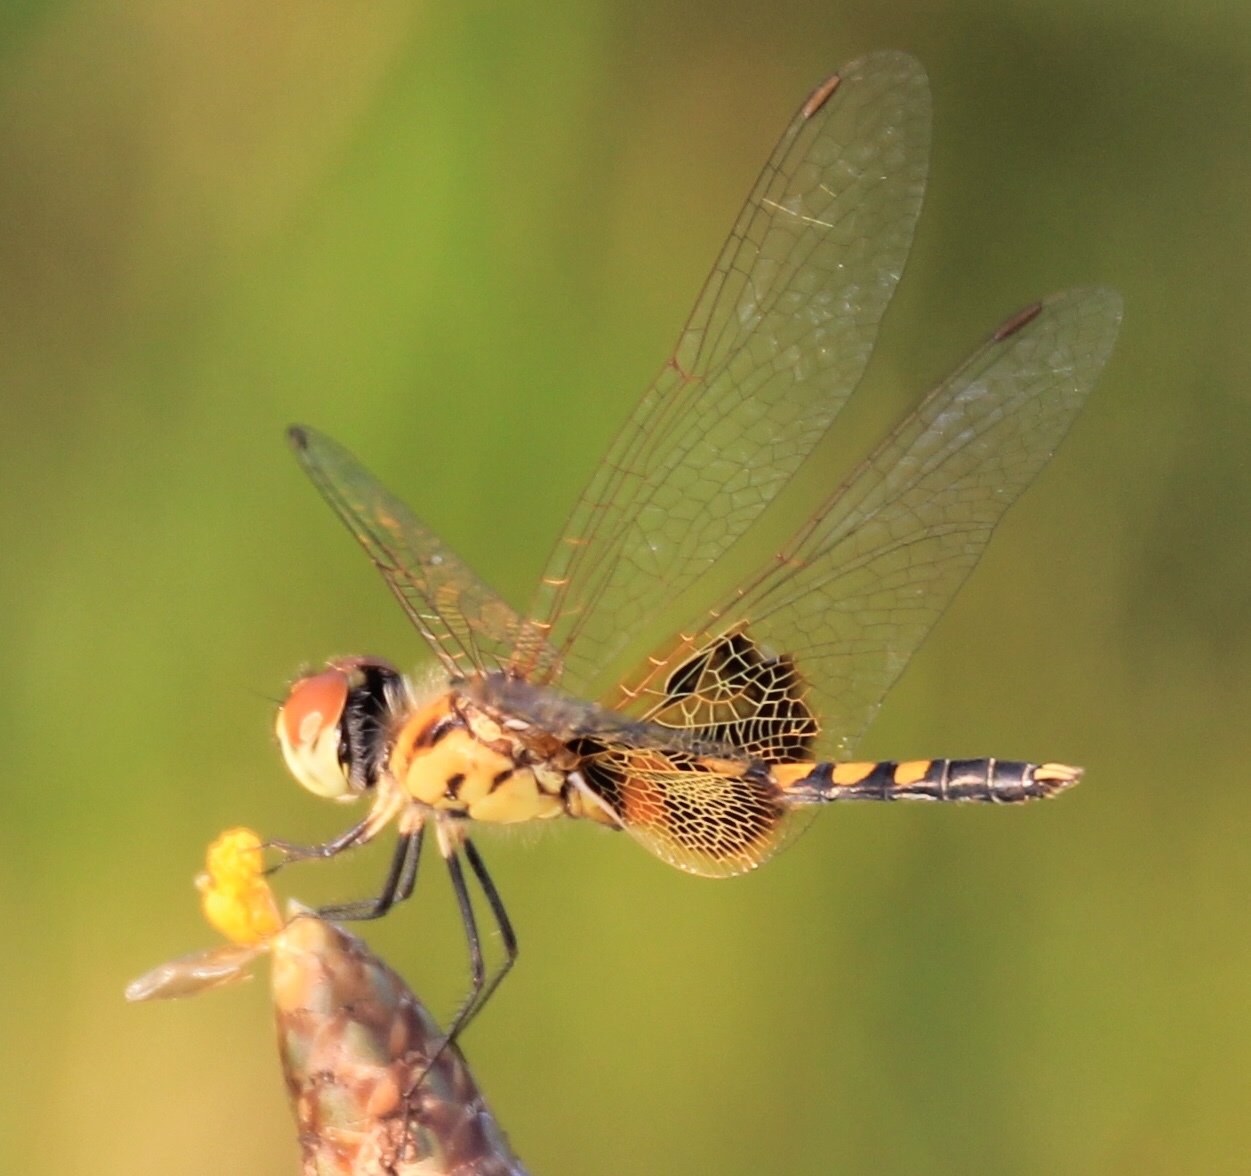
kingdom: Animalia
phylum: Arthropoda
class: Insecta
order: Odonata
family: Libellulidae
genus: Celithemis
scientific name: Celithemis amanda
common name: Amanda's pennant
